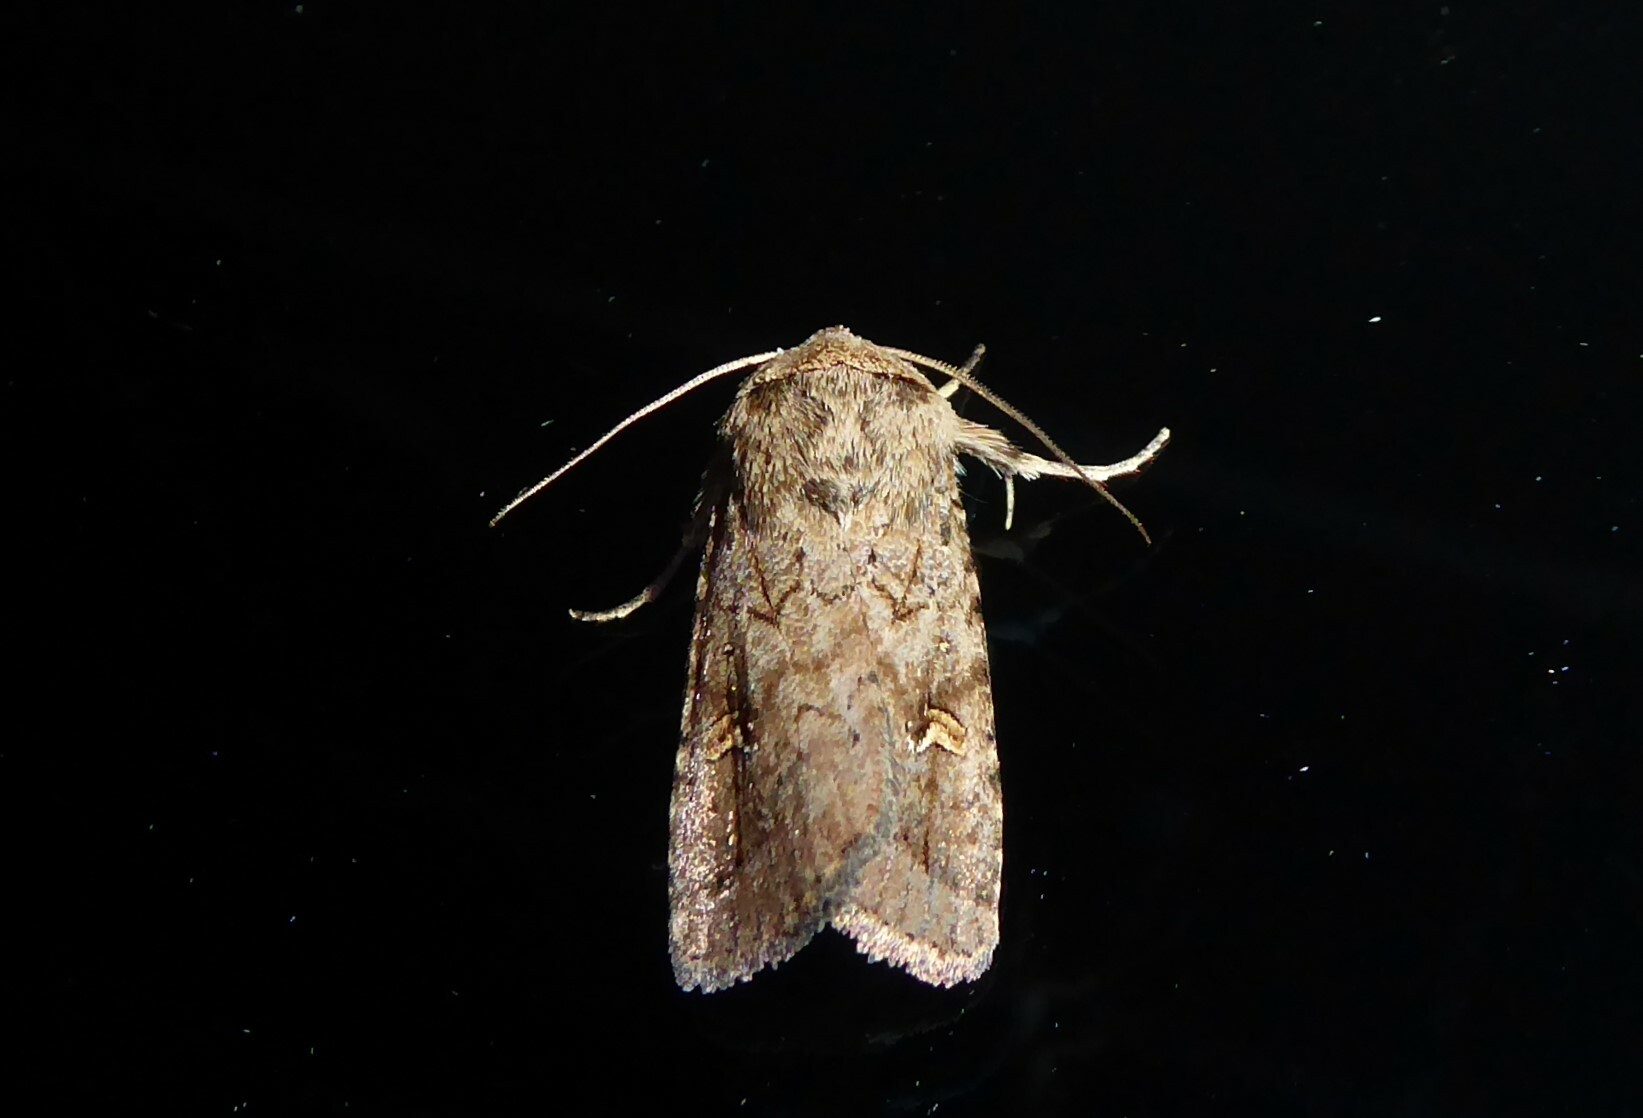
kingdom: Animalia
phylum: Arthropoda
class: Insecta
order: Lepidoptera
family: Noctuidae
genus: Proteuxoa
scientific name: Proteuxoa tetronycha
